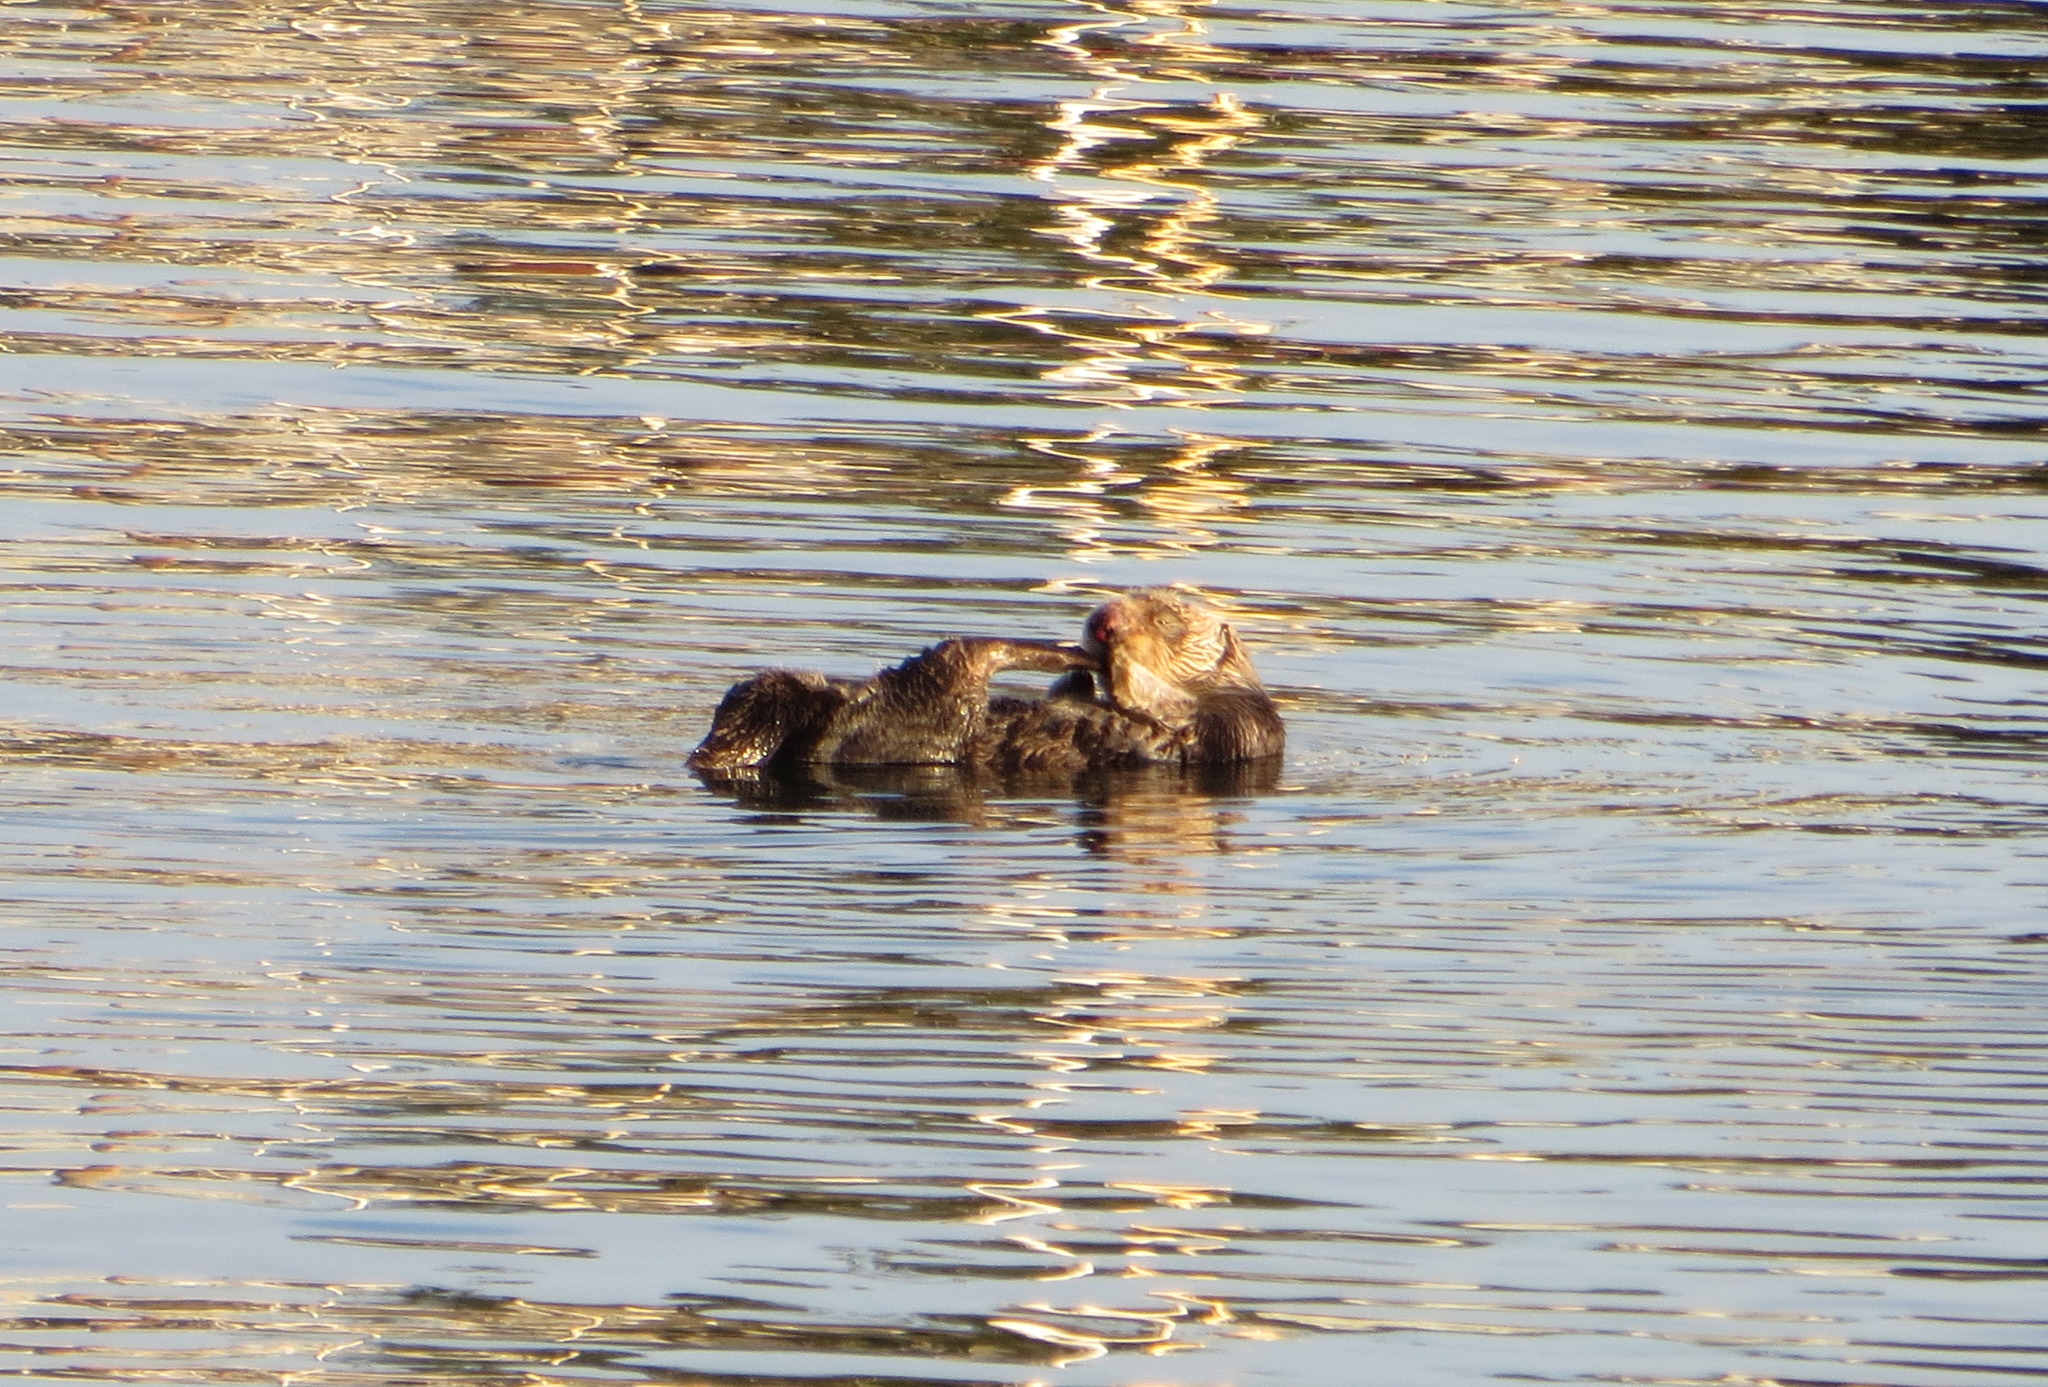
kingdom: Animalia
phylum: Chordata
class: Mammalia
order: Carnivora
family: Mustelidae
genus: Enhydra
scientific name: Enhydra lutris
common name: Sea otter
